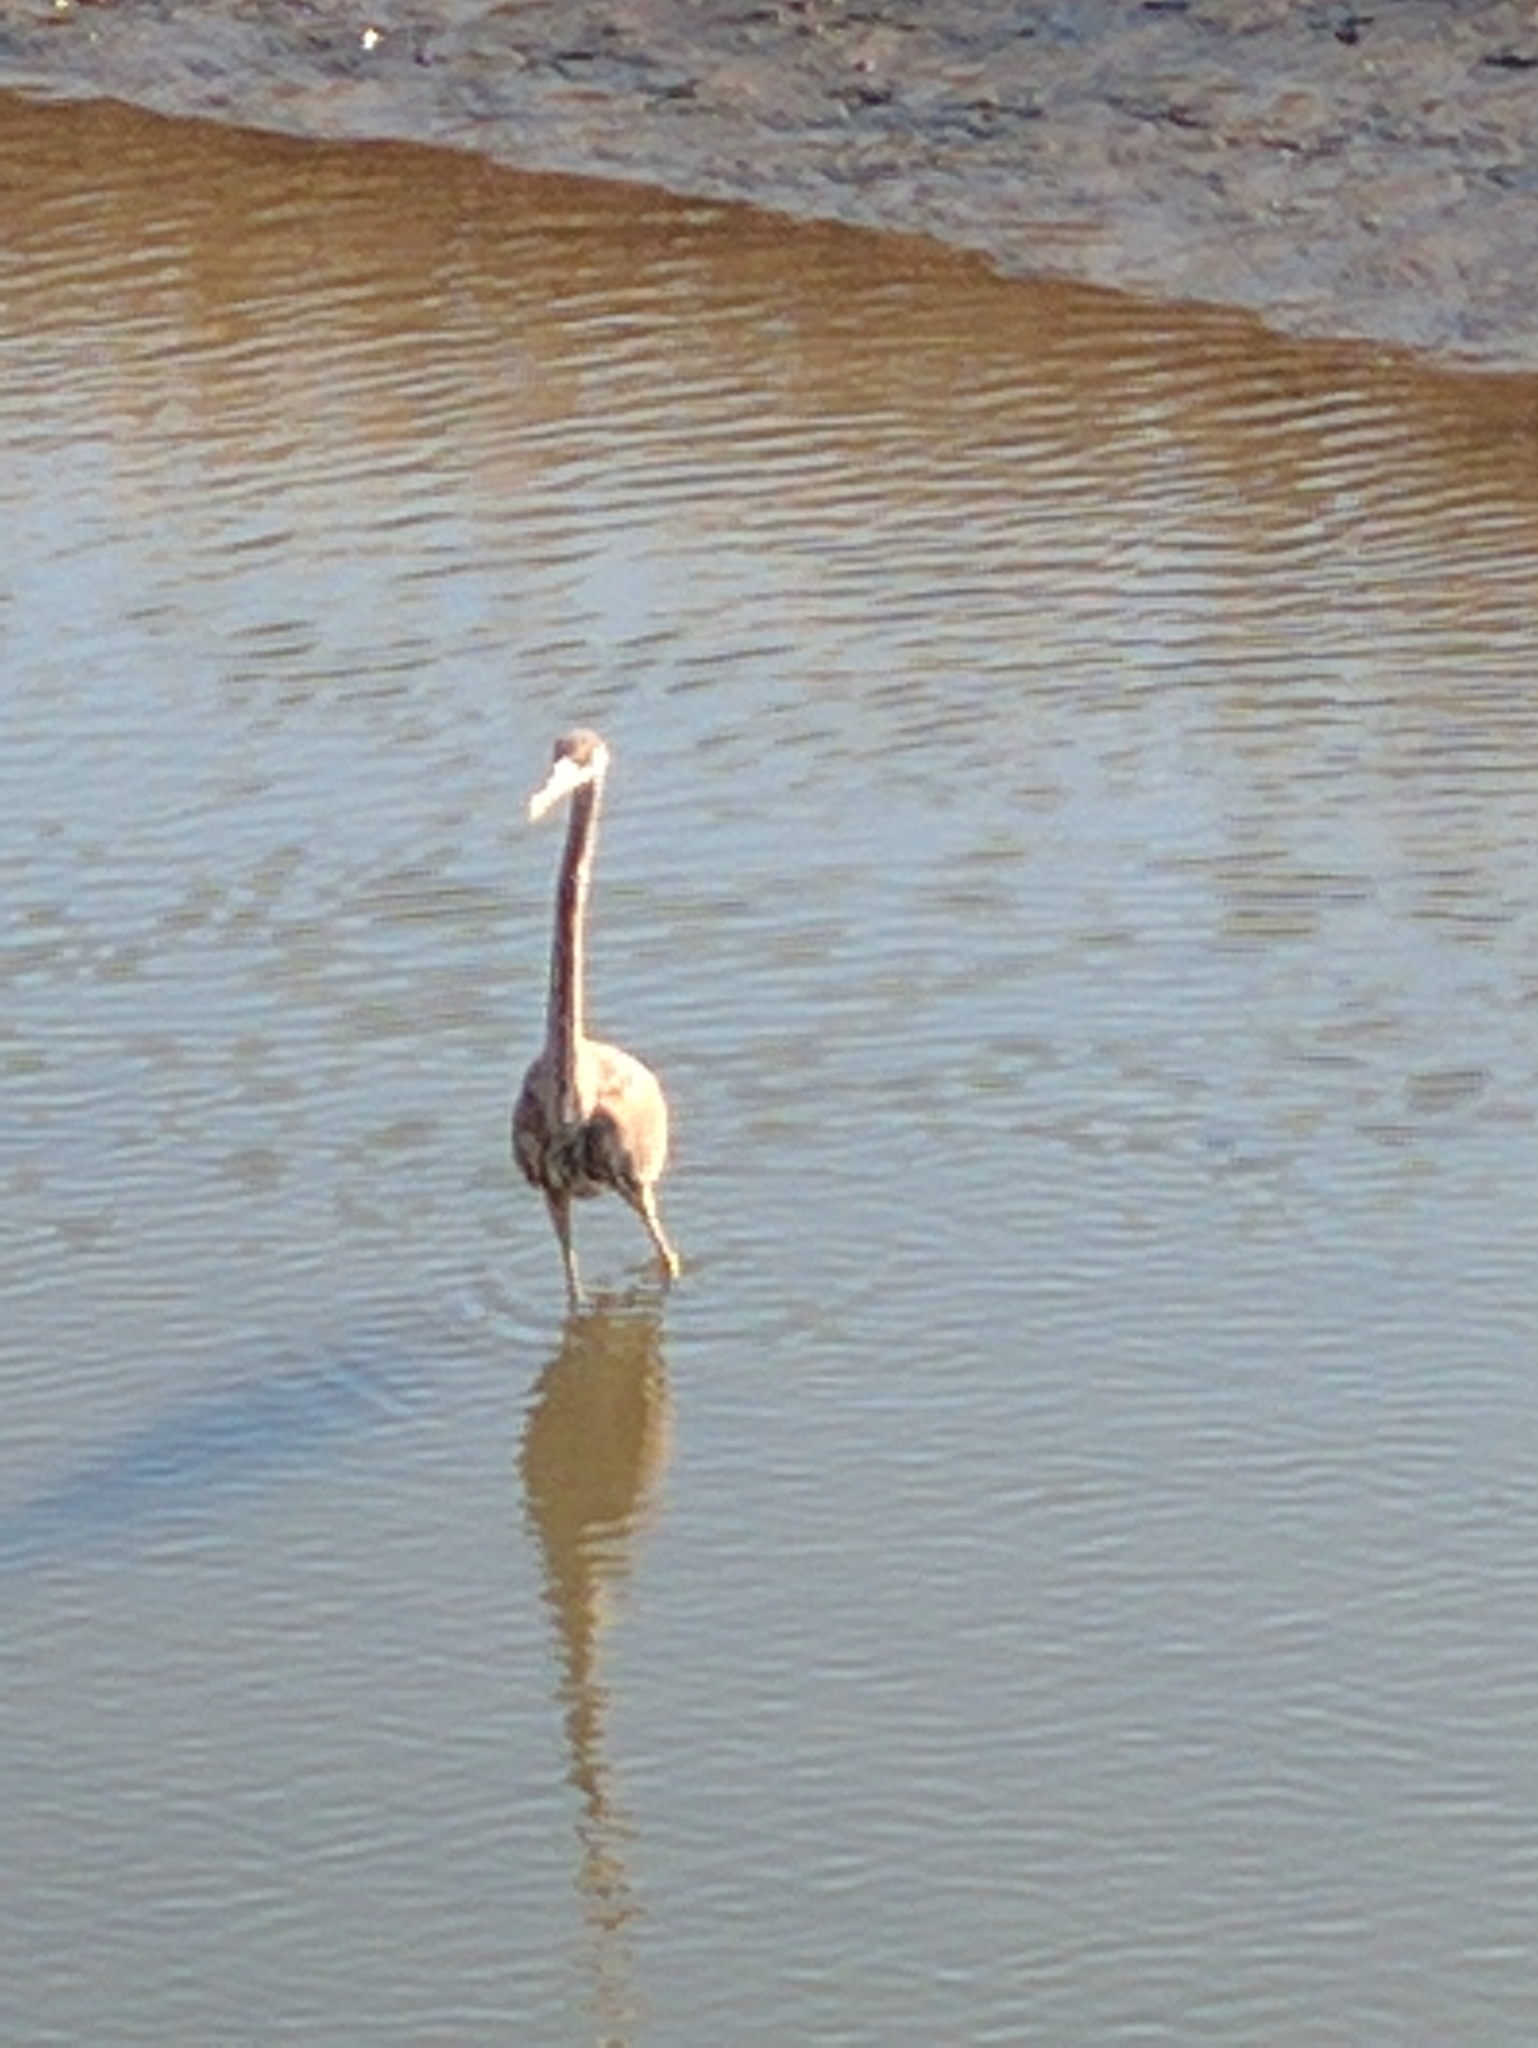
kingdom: Animalia
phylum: Chordata
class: Aves
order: Pelecaniformes
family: Ardeidae
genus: Ardea
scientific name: Ardea herodias
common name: Great blue heron
